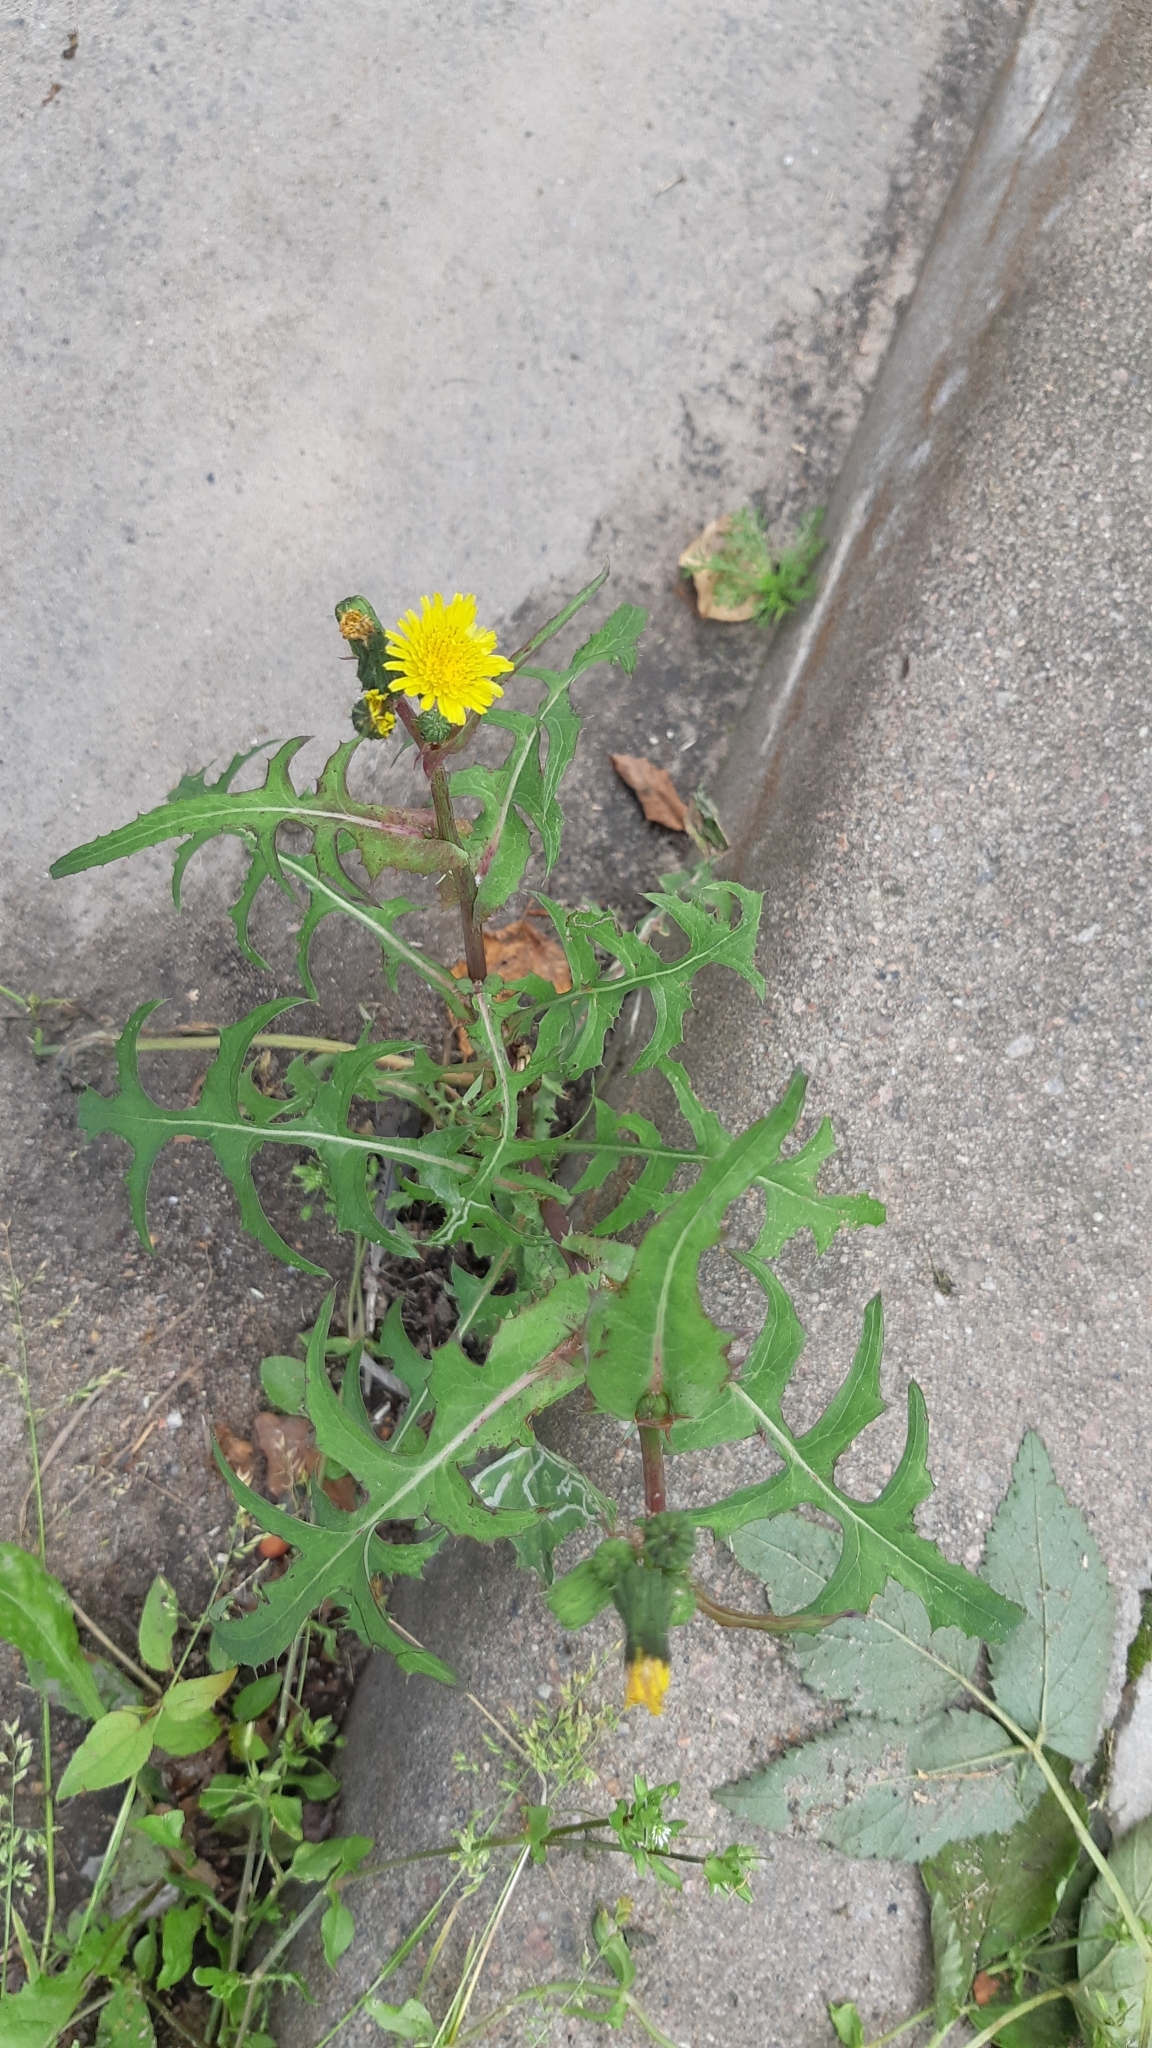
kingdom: Plantae
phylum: Tracheophyta
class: Magnoliopsida
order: Asterales
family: Asteraceae
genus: Sonchus
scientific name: Sonchus oleraceus
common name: Common sowthistle
